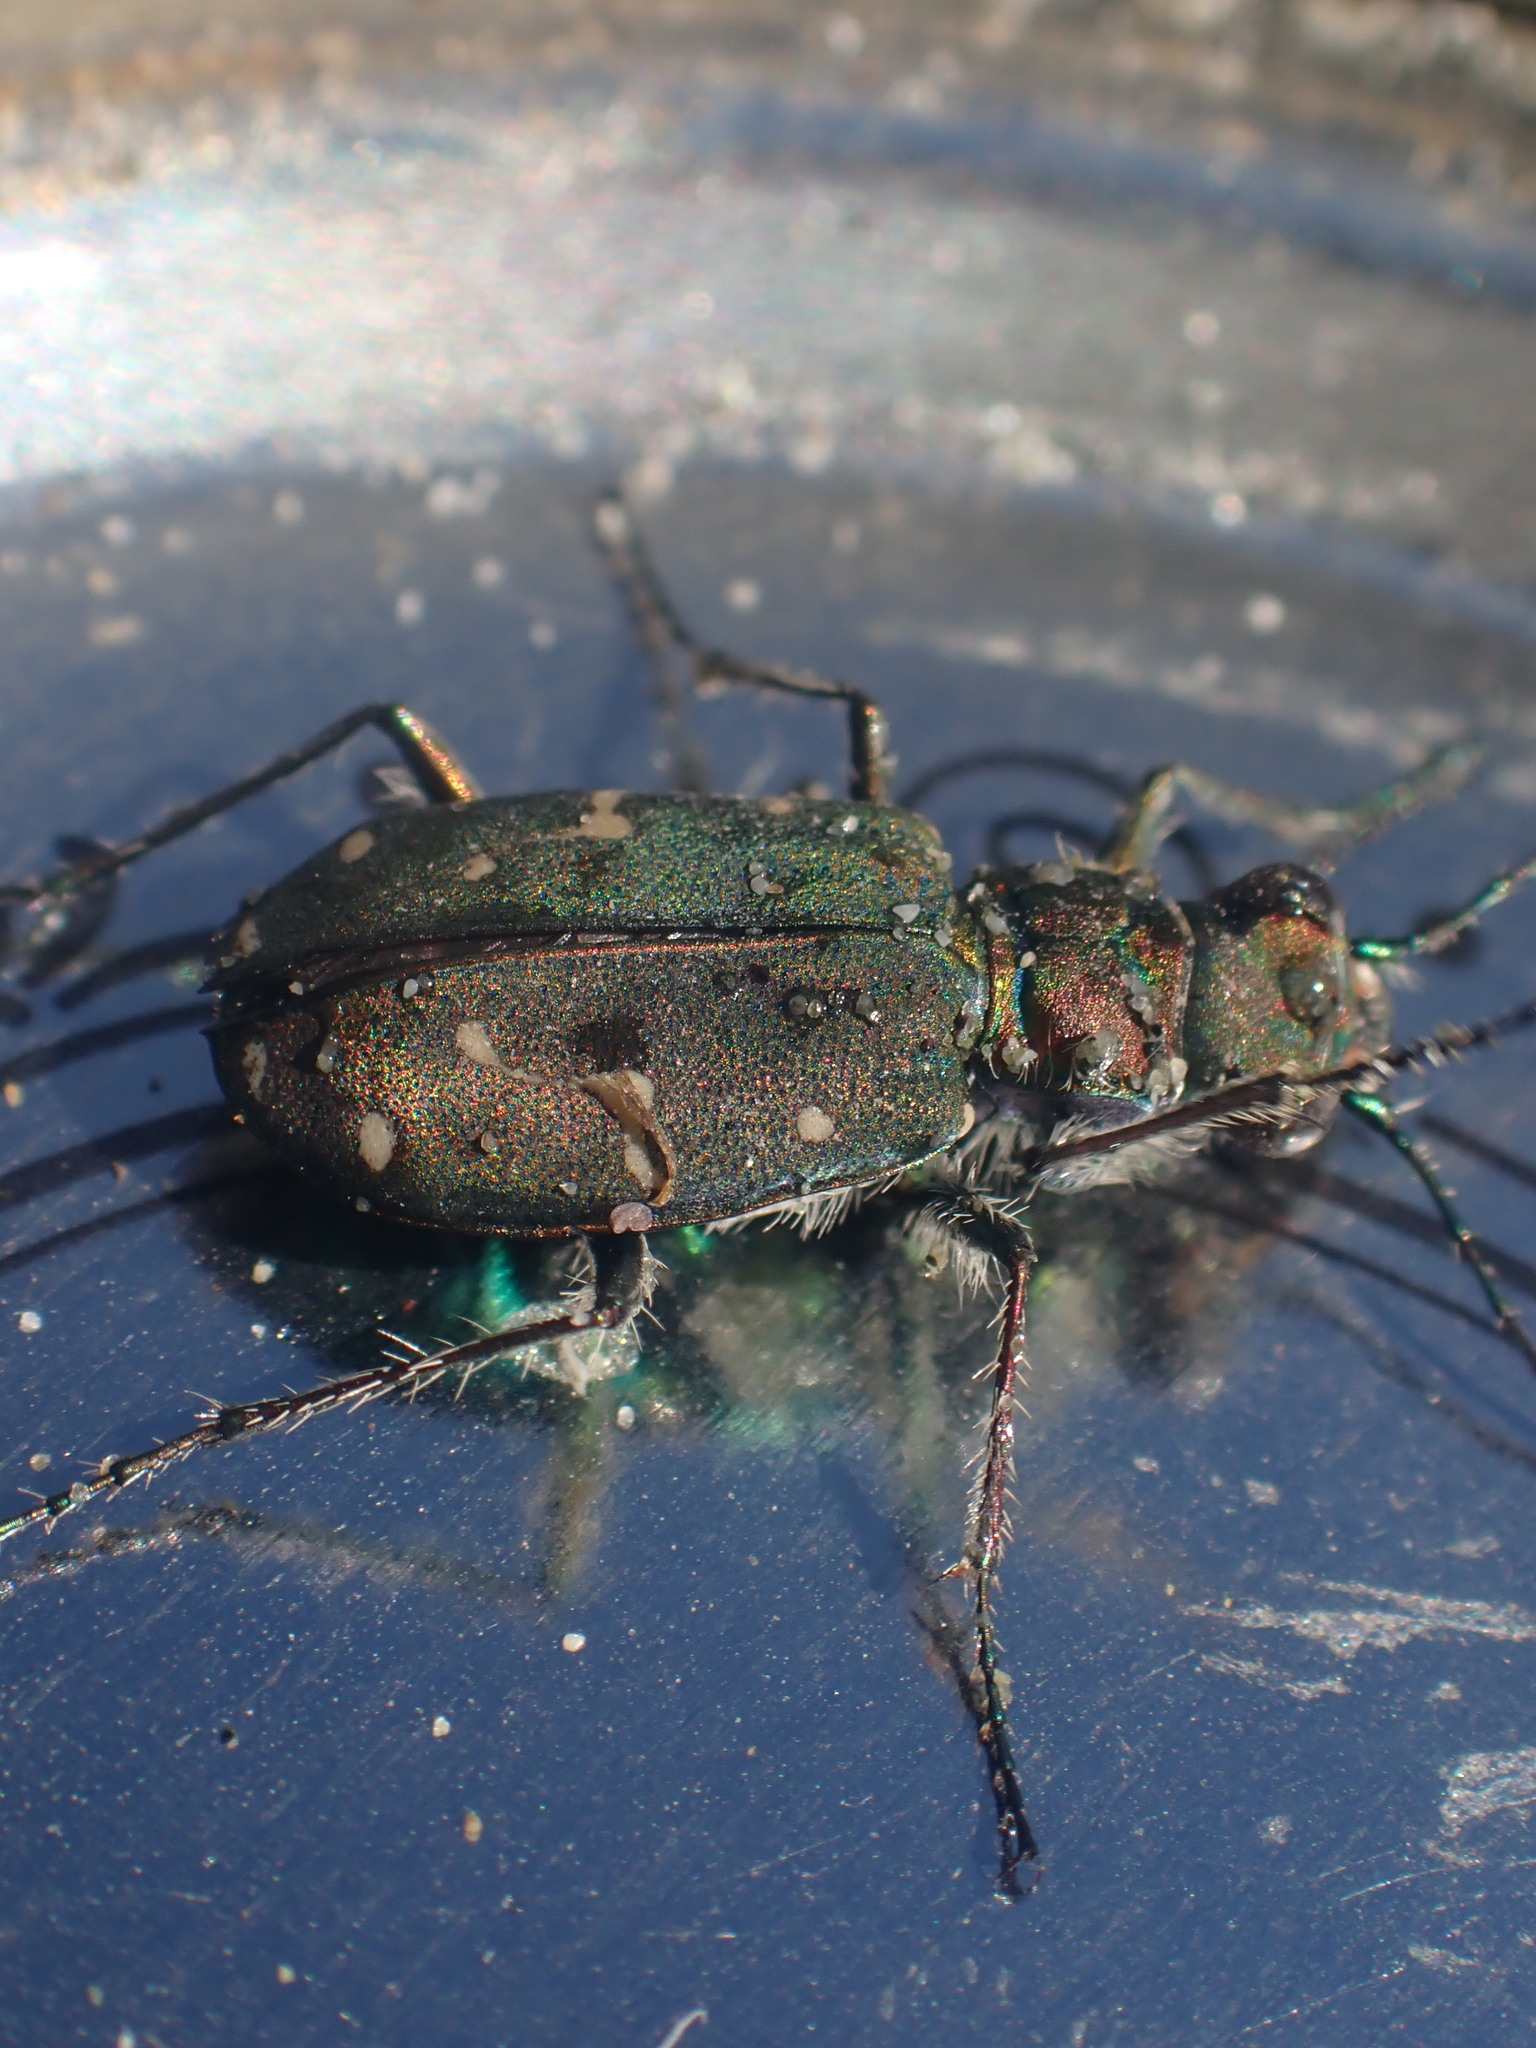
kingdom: Animalia
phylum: Arthropoda
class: Insecta
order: Coleoptera
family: Carabidae
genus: Cicindela
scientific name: Cicindela oregona
